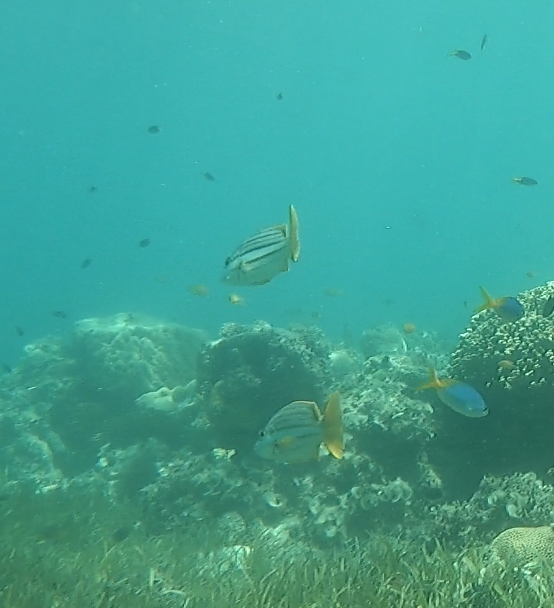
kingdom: Animalia
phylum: Chordata
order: Perciformes
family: Lutjanidae
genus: Lutjanus
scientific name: Lutjanus carponotatus
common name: Spanish flag
